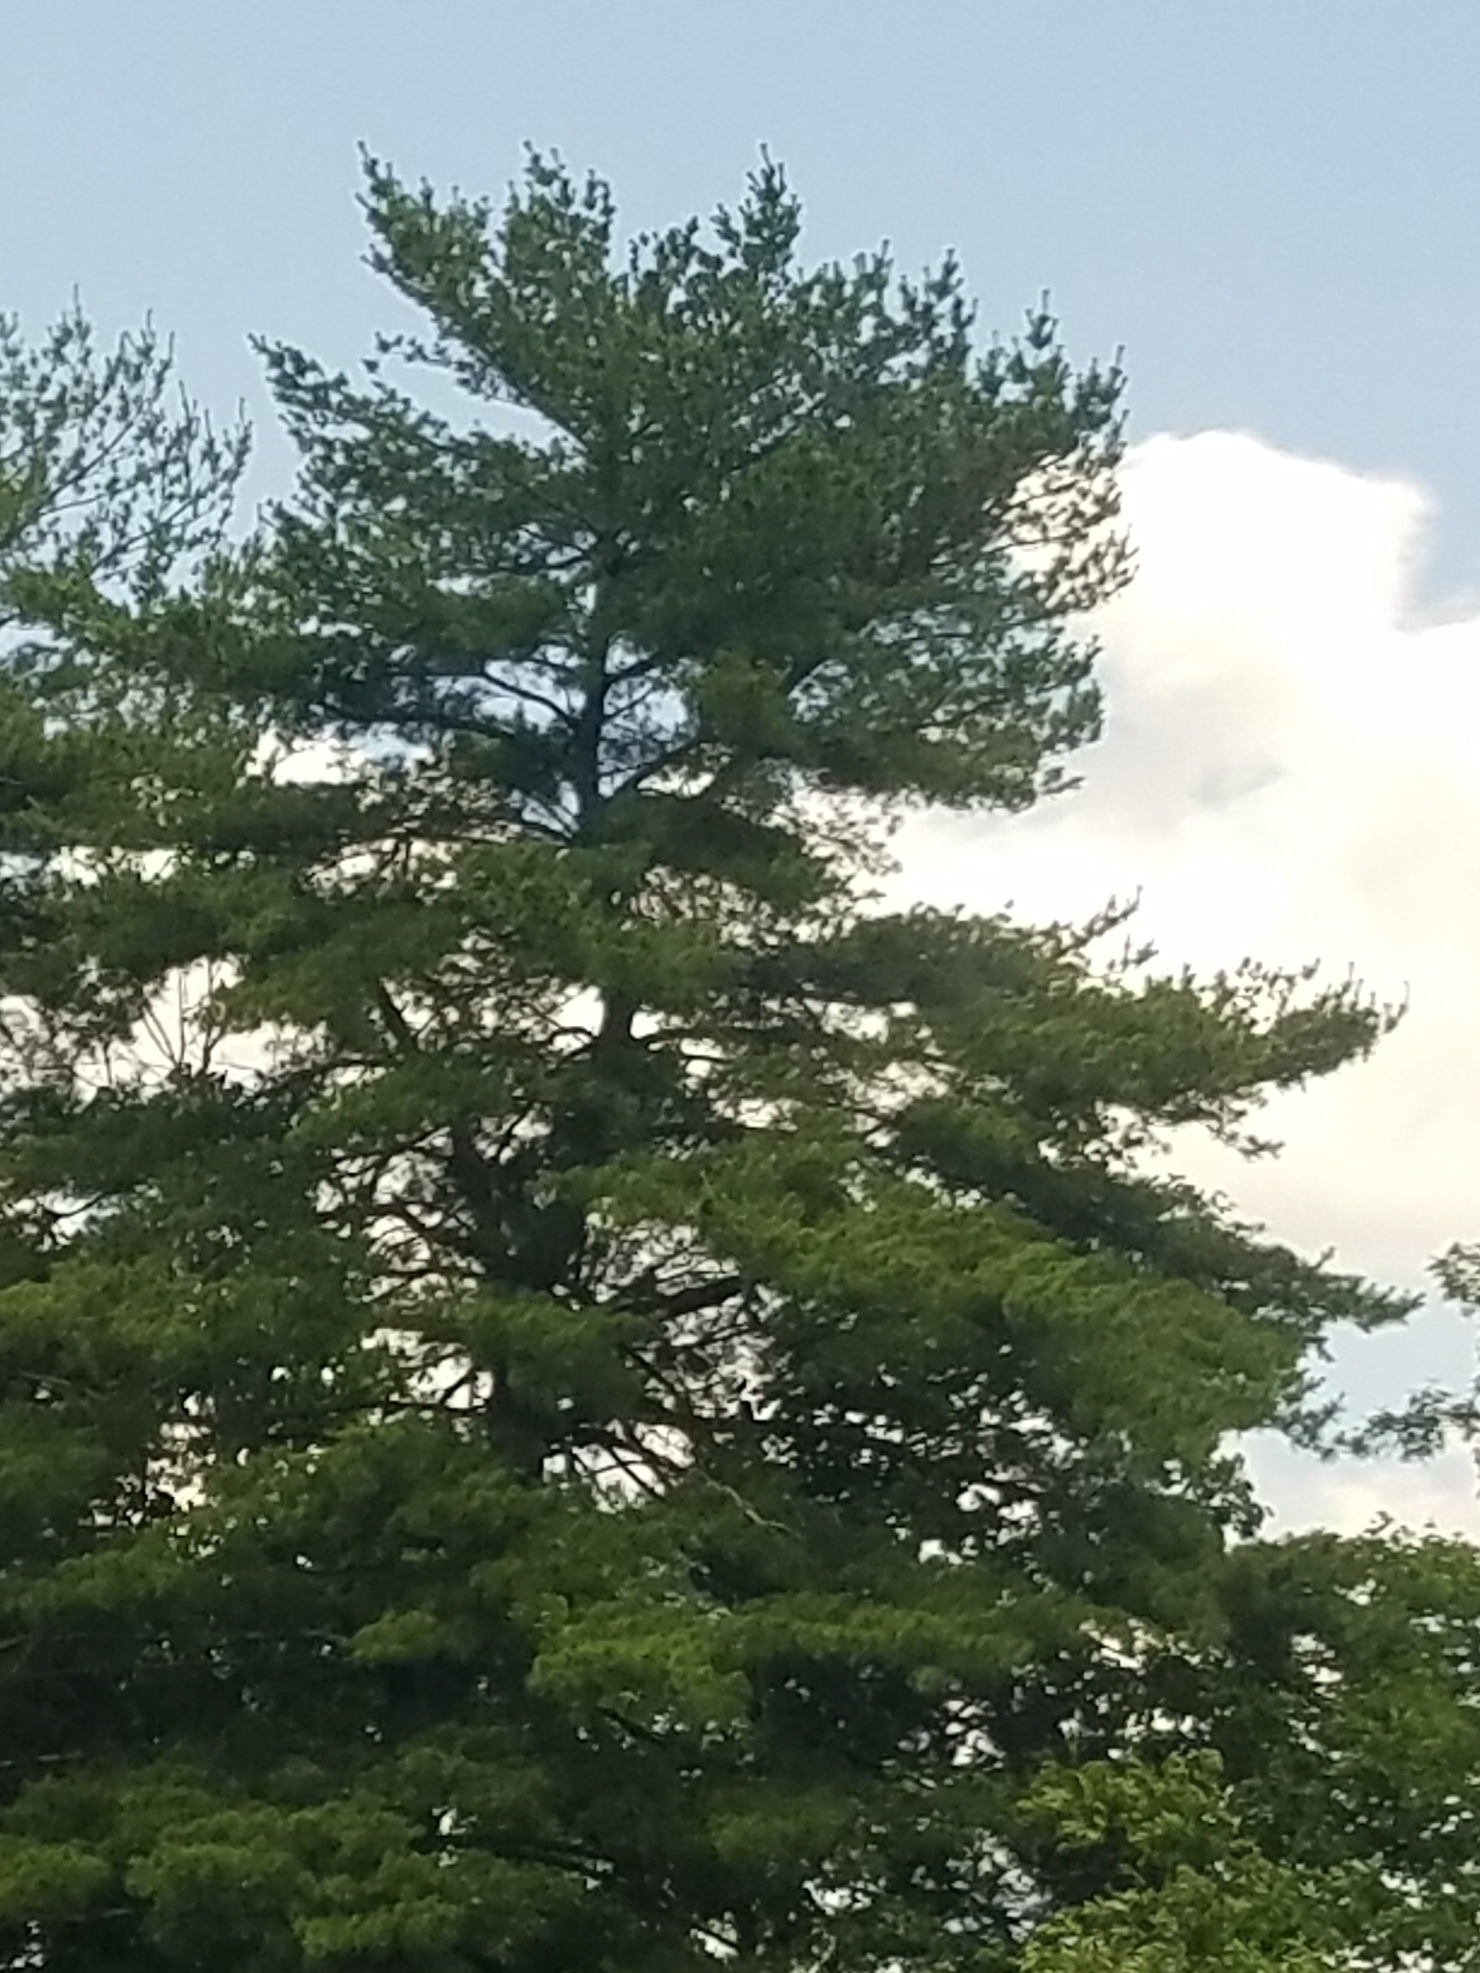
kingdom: Plantae
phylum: Tracheophyta
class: Pinopsida
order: Pinales
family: Pinaceae
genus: Pinus
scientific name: Pinus strobus
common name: Weymouth pine
